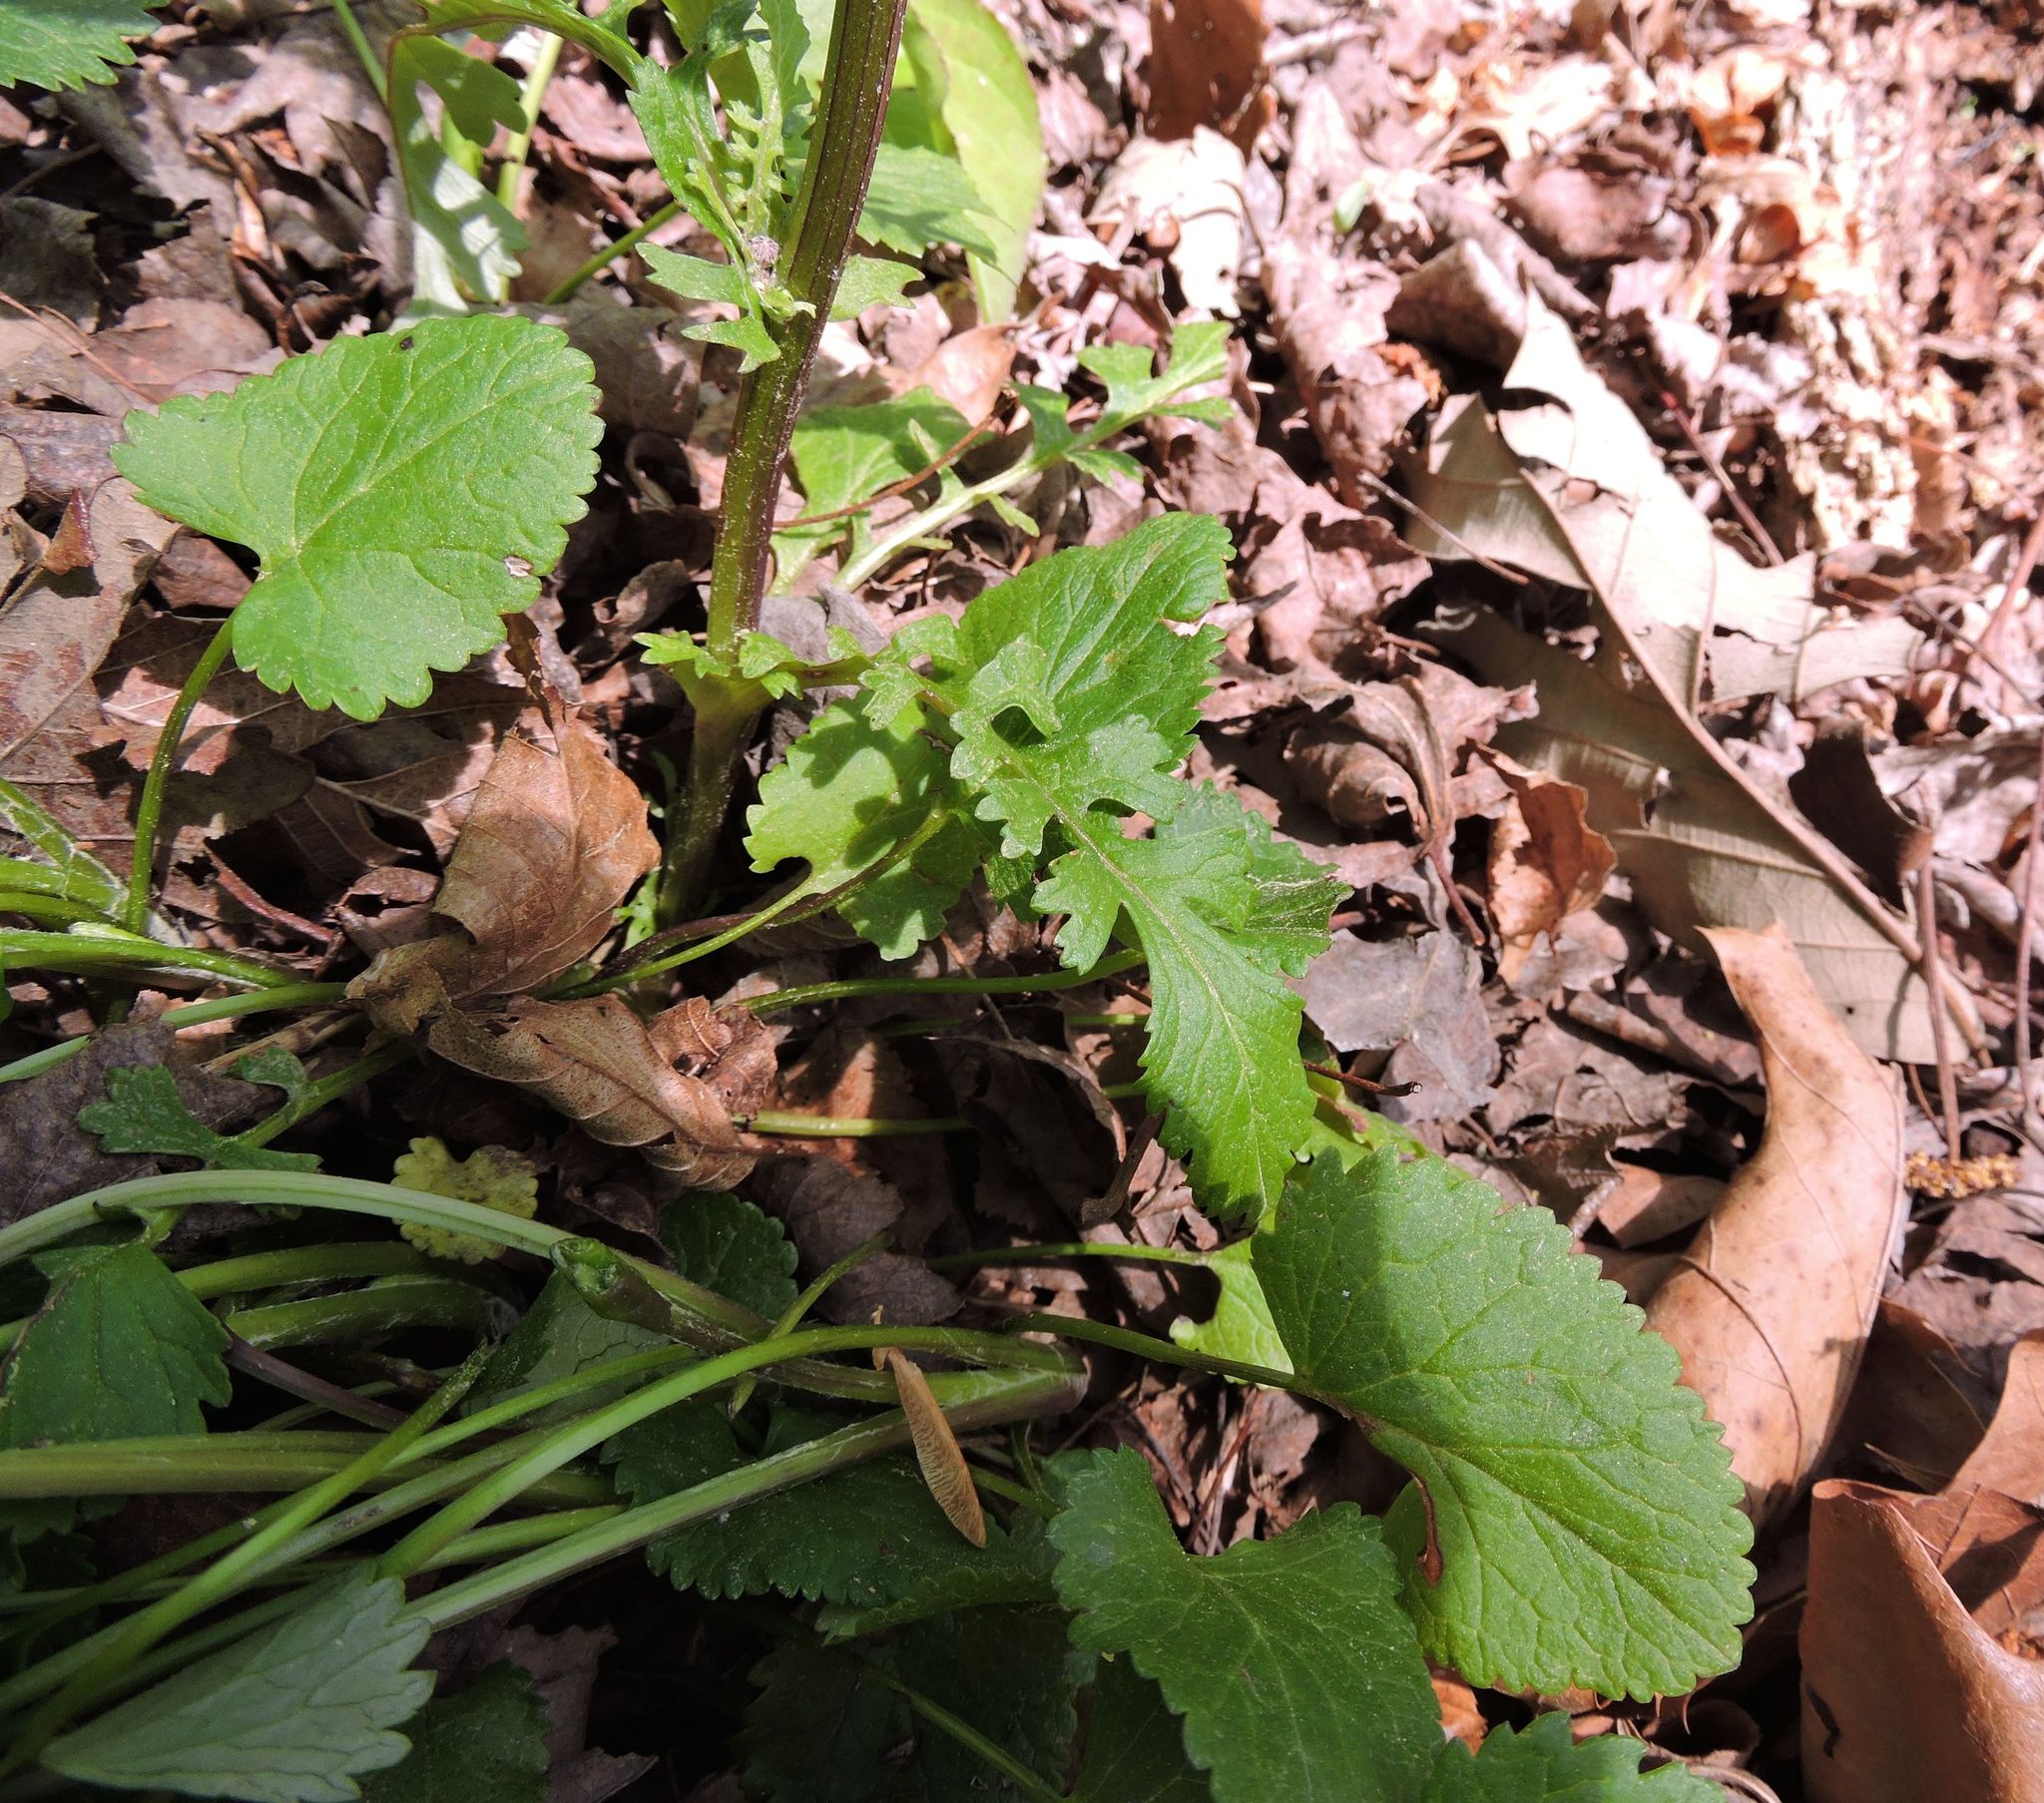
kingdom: Plantae
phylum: Tracheophyta
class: Magnoliopsida
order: Asterales
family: Asteraceae
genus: Packera
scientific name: Packera aurea
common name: Golden groundsel
